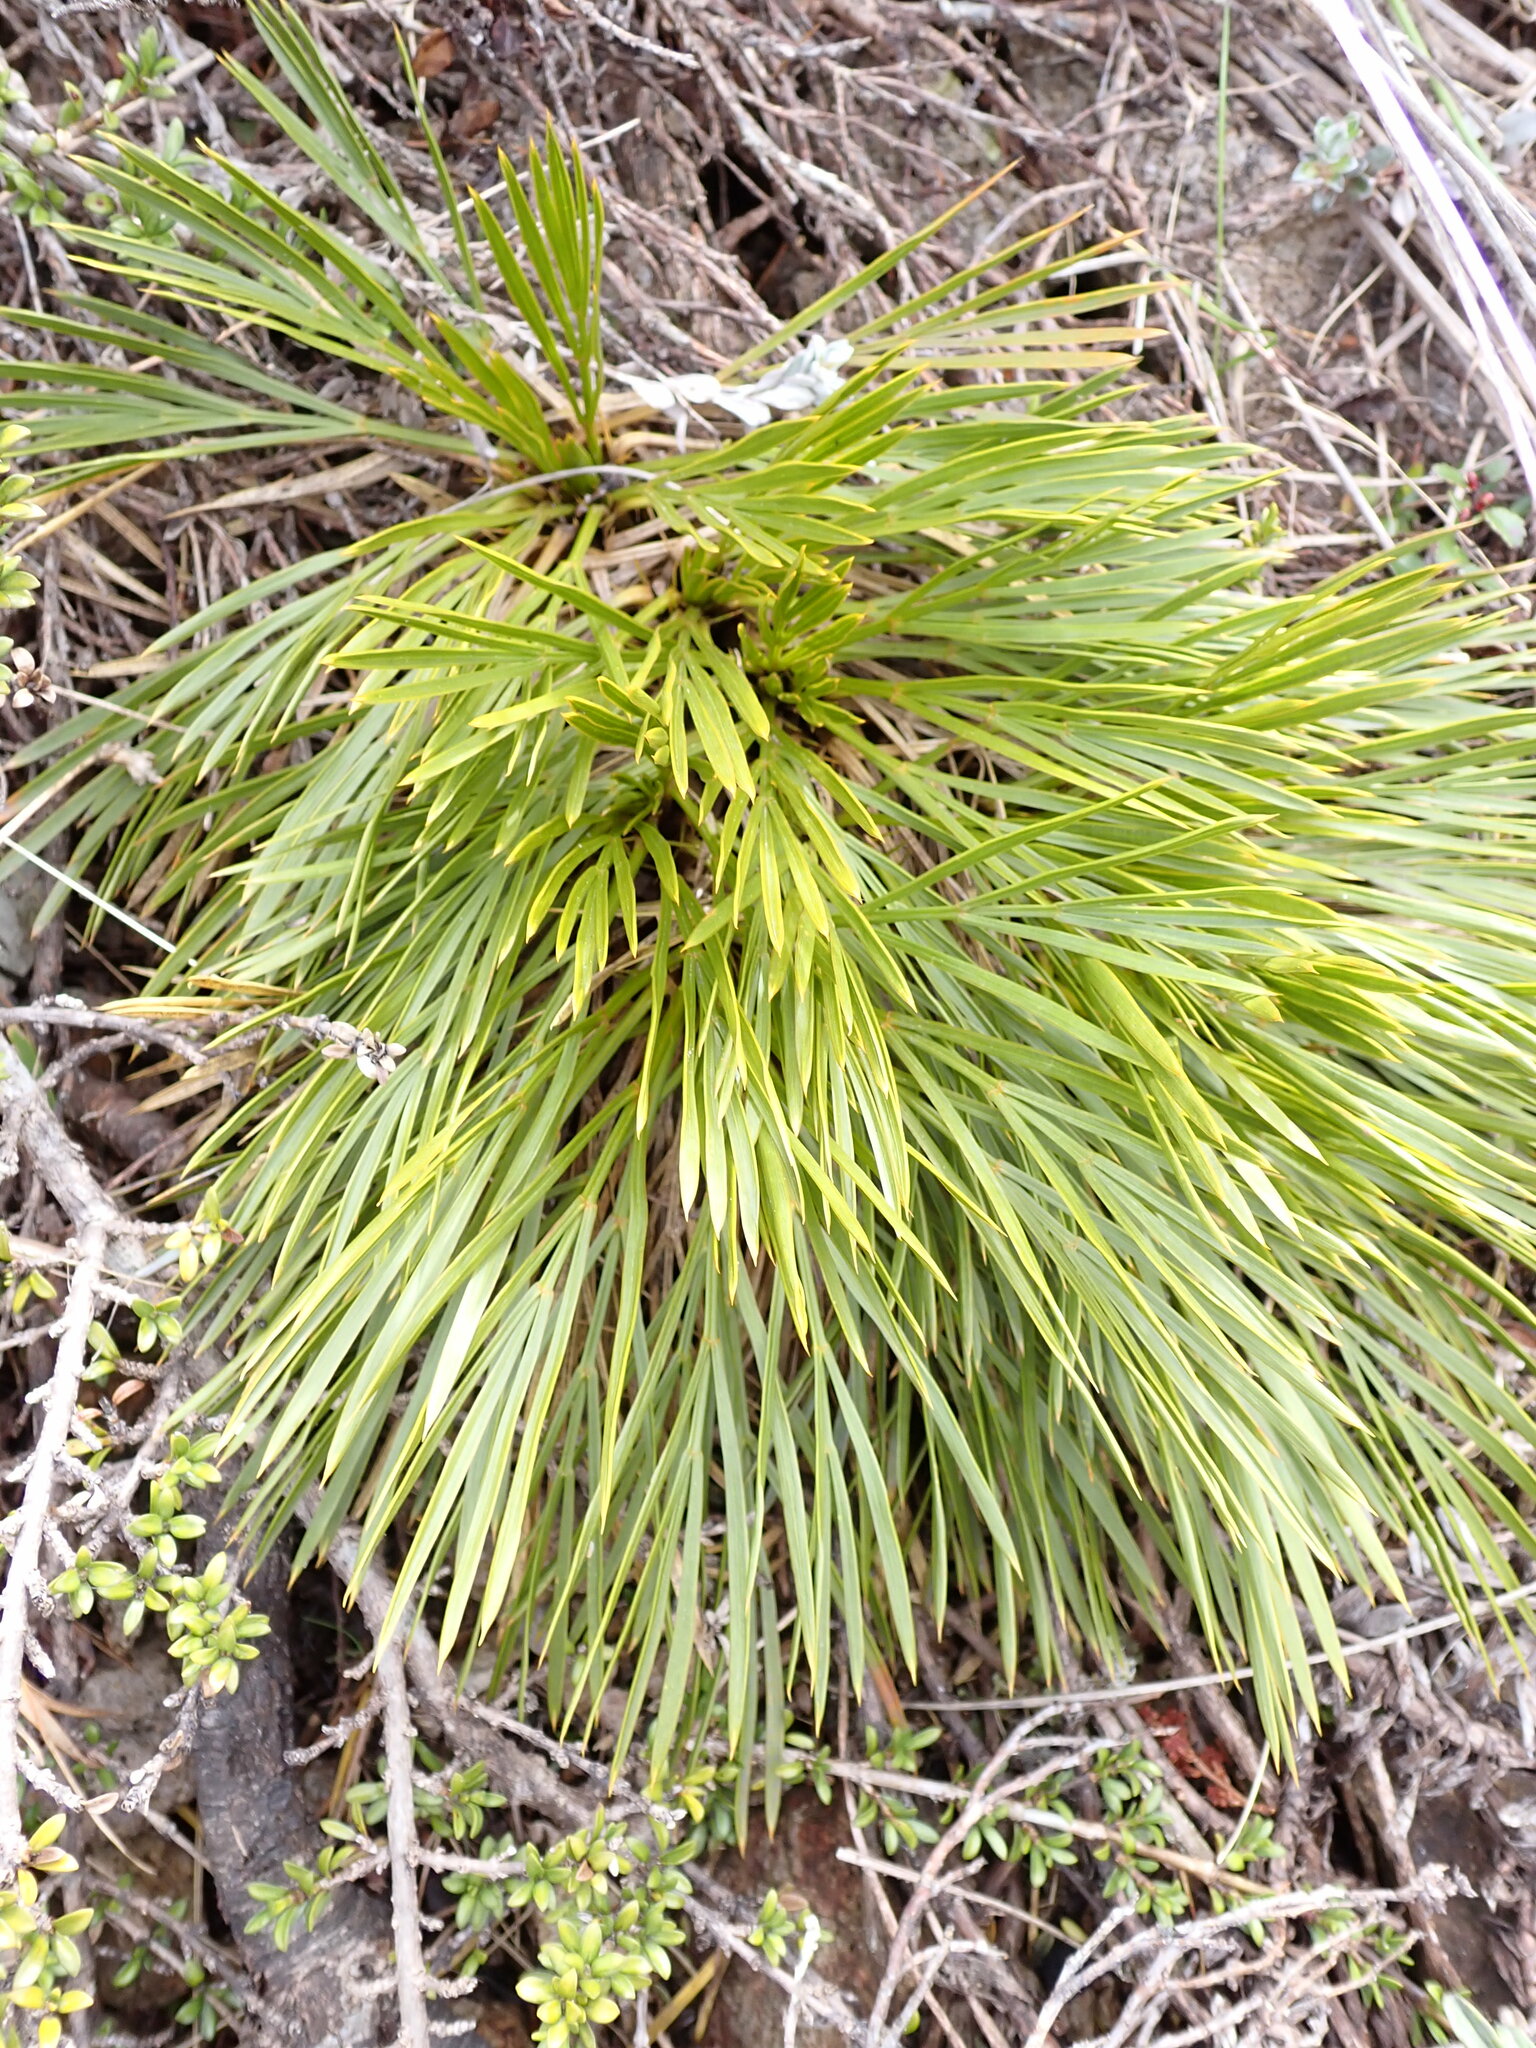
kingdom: Plantae
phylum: Tracheophyta
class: Magnoliopsida
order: Apiales
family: Apiaceae
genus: Aciphylla
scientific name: Aciphylla montana
